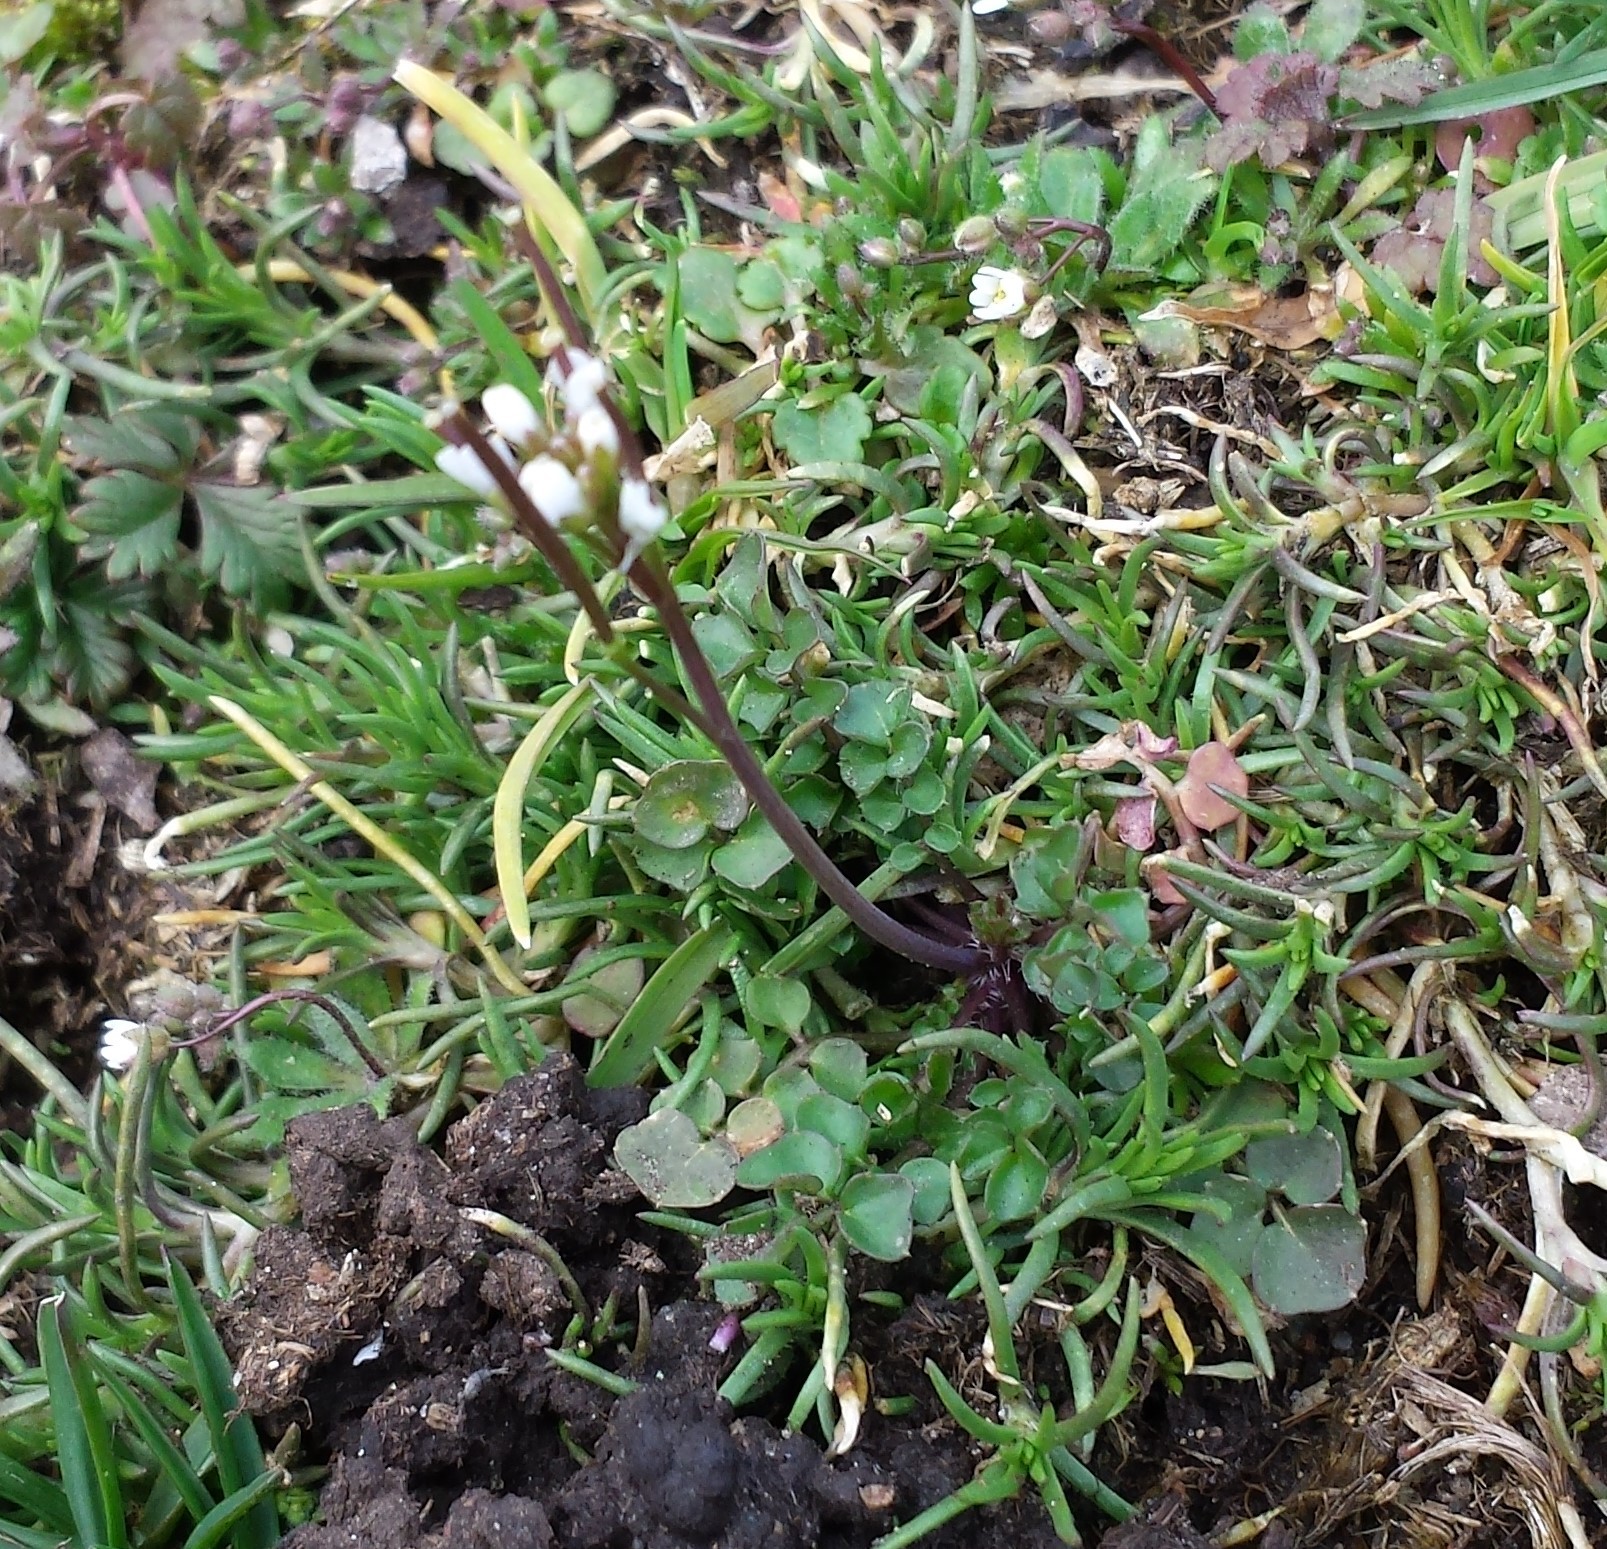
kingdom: Plantae
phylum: Tracheophyta
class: Magnoliopsida
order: Brassicales
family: Brassicaceae
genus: Cardamine
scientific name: Cardamine hirsuta
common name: Hairy bittercress
